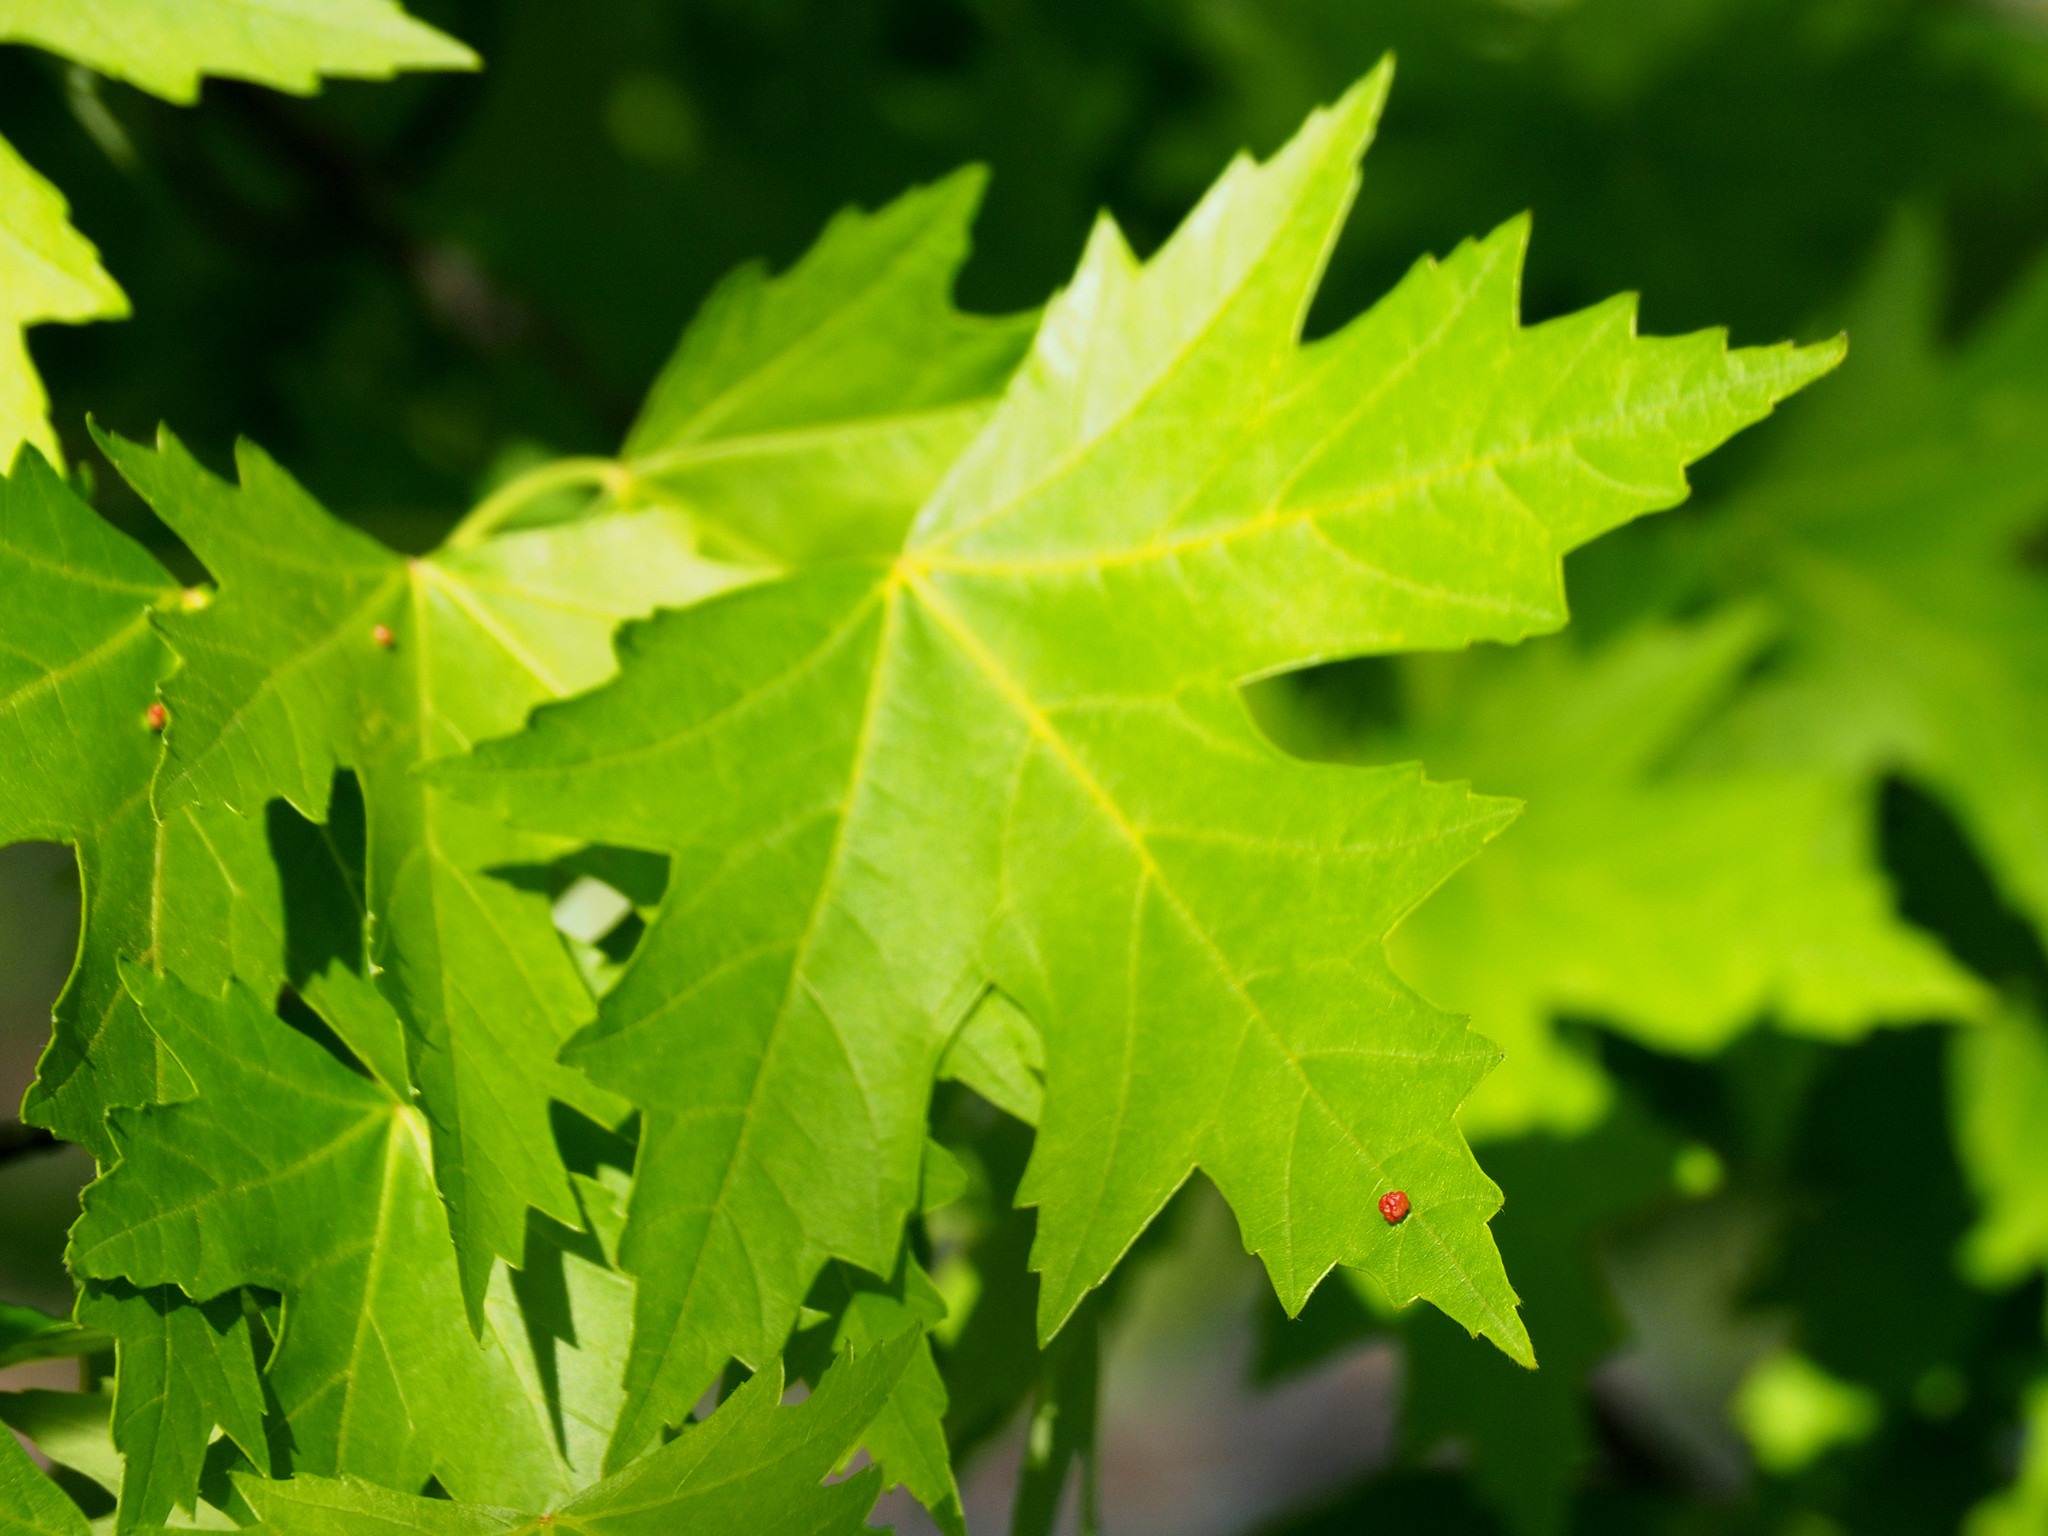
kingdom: Animalia
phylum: Arthropoda
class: Arachnida
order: Trombidiformes
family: Eriophyidae
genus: Vasates
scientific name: Vasates quadripedes
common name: Maple bladder gall mite
